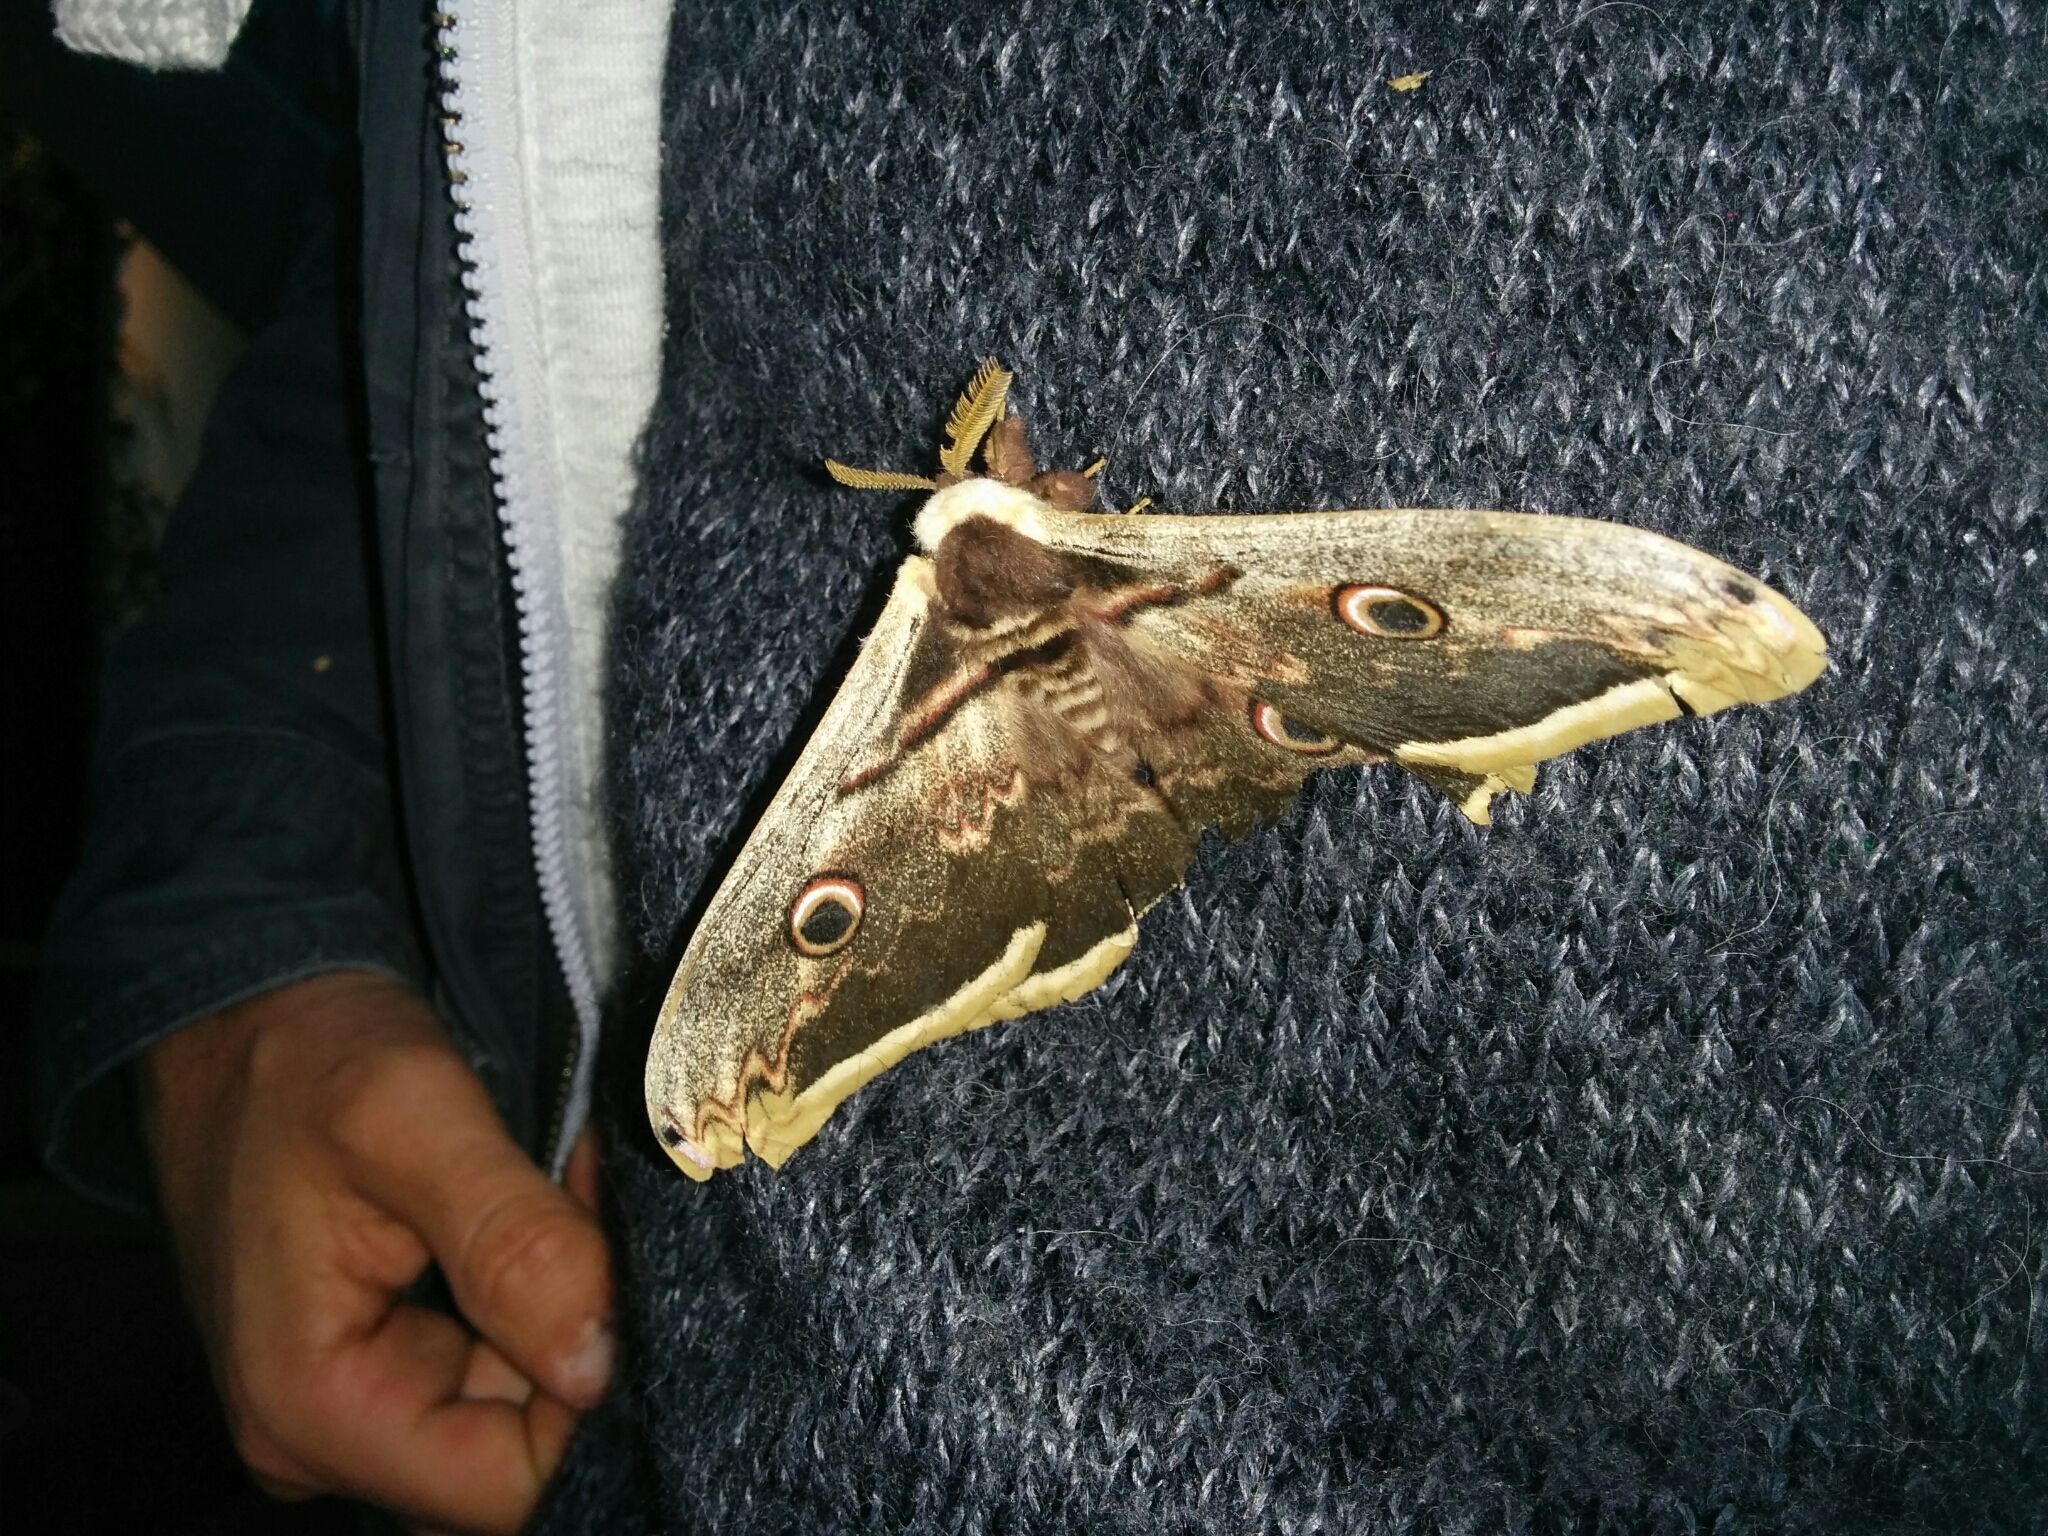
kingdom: Animalia
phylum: Arthropoda
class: Insecta
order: Lepidoptera
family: Saturniidae
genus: Saturnia
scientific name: Saturnia pyri
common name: Great peacock moth
